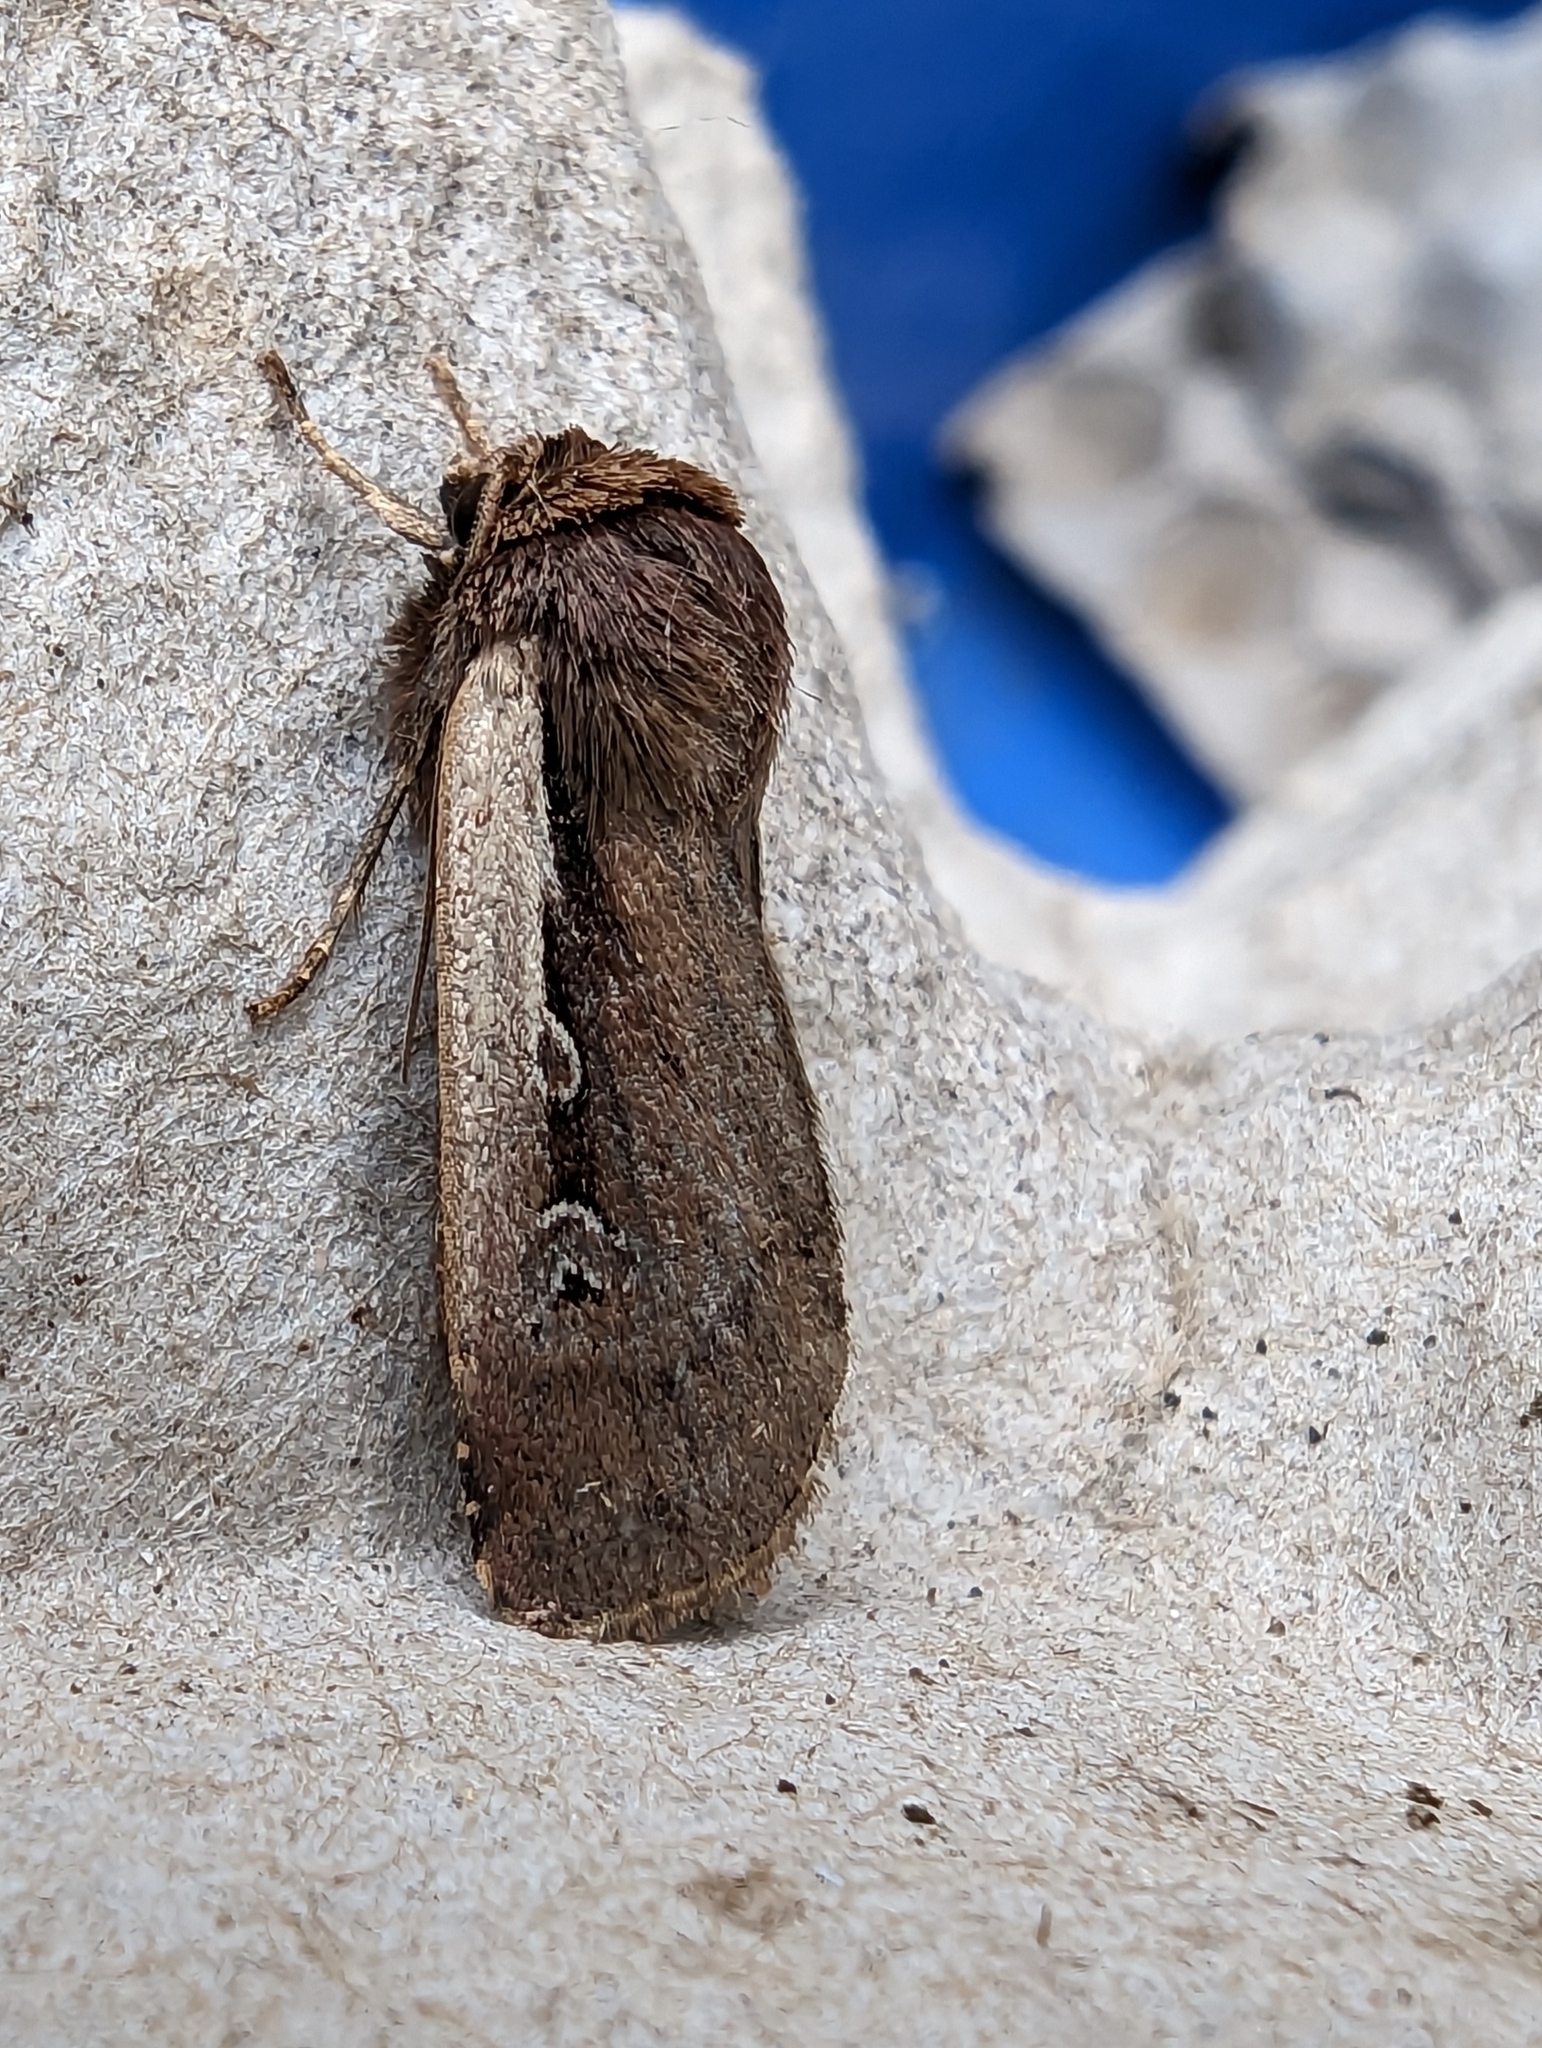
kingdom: Animalia
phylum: Arthropoda
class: Insecta
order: Lepidoptera
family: Noctuidae
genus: Ochropleura
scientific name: Ochropleura plecta
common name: Flame shoulder
